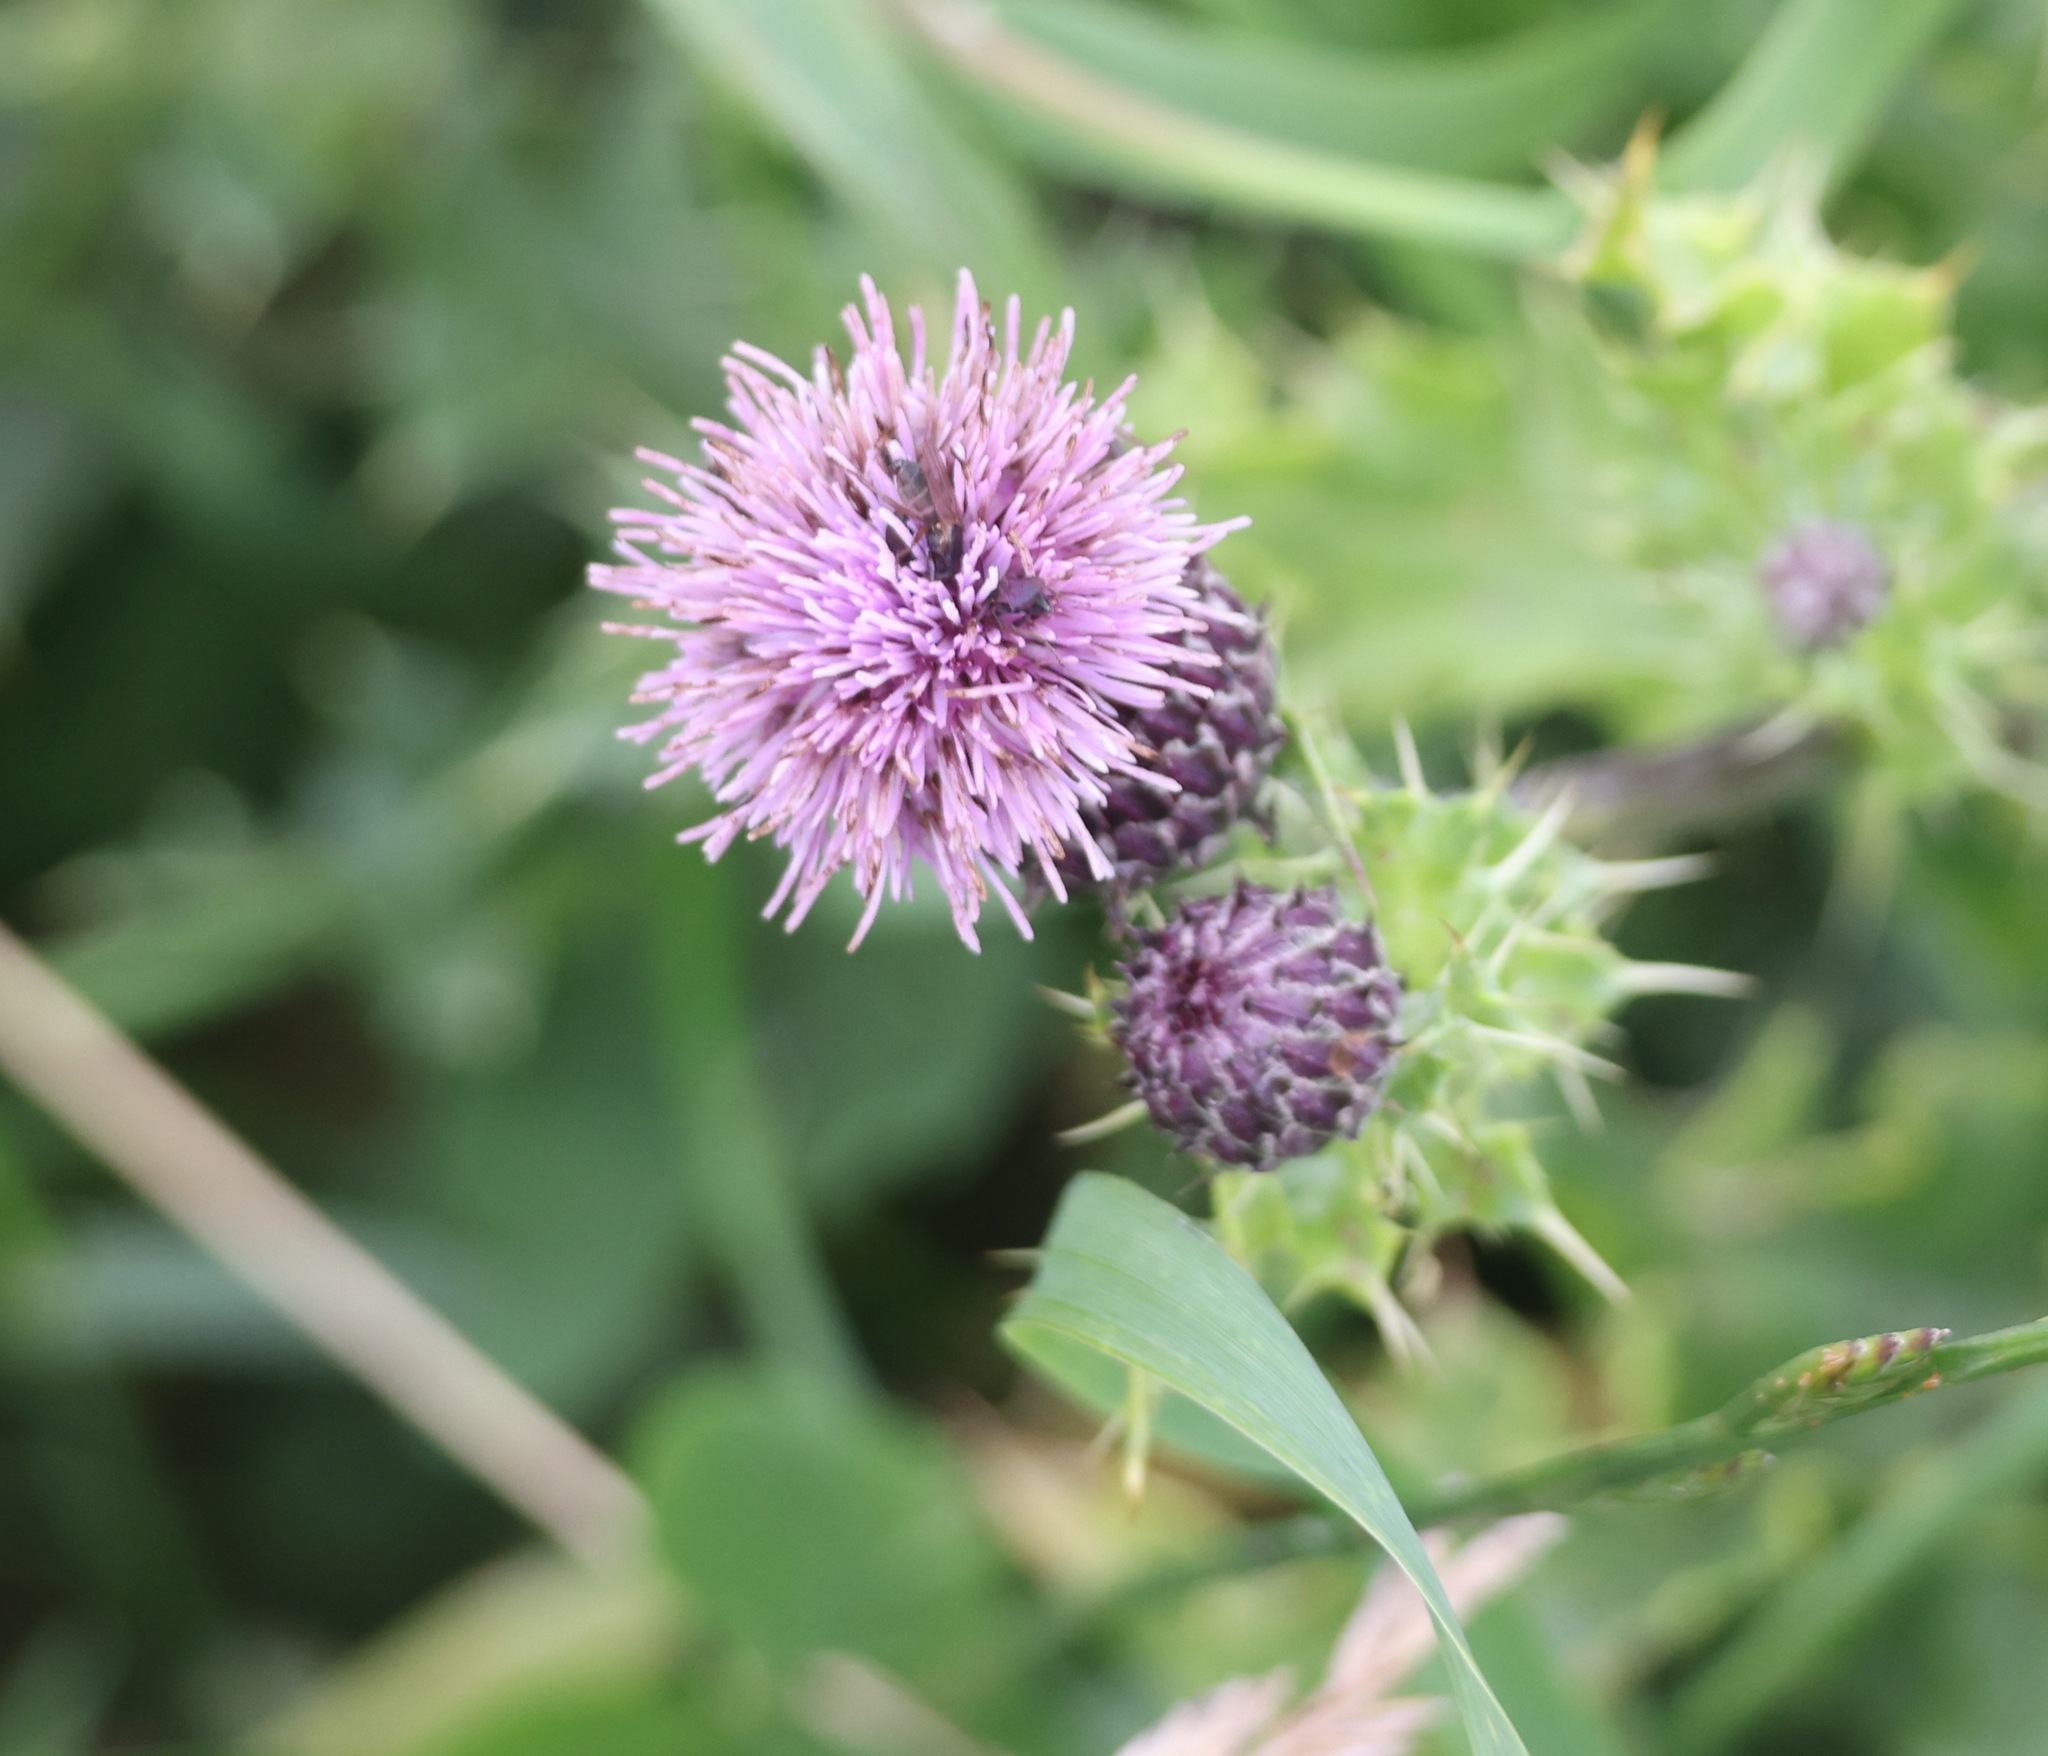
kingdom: Plantae
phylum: Tracheophyta
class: Magnoliopsida
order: Asterales
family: Asteraceae
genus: Cirsium
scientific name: Cirsium arvense
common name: Creeping thistle
